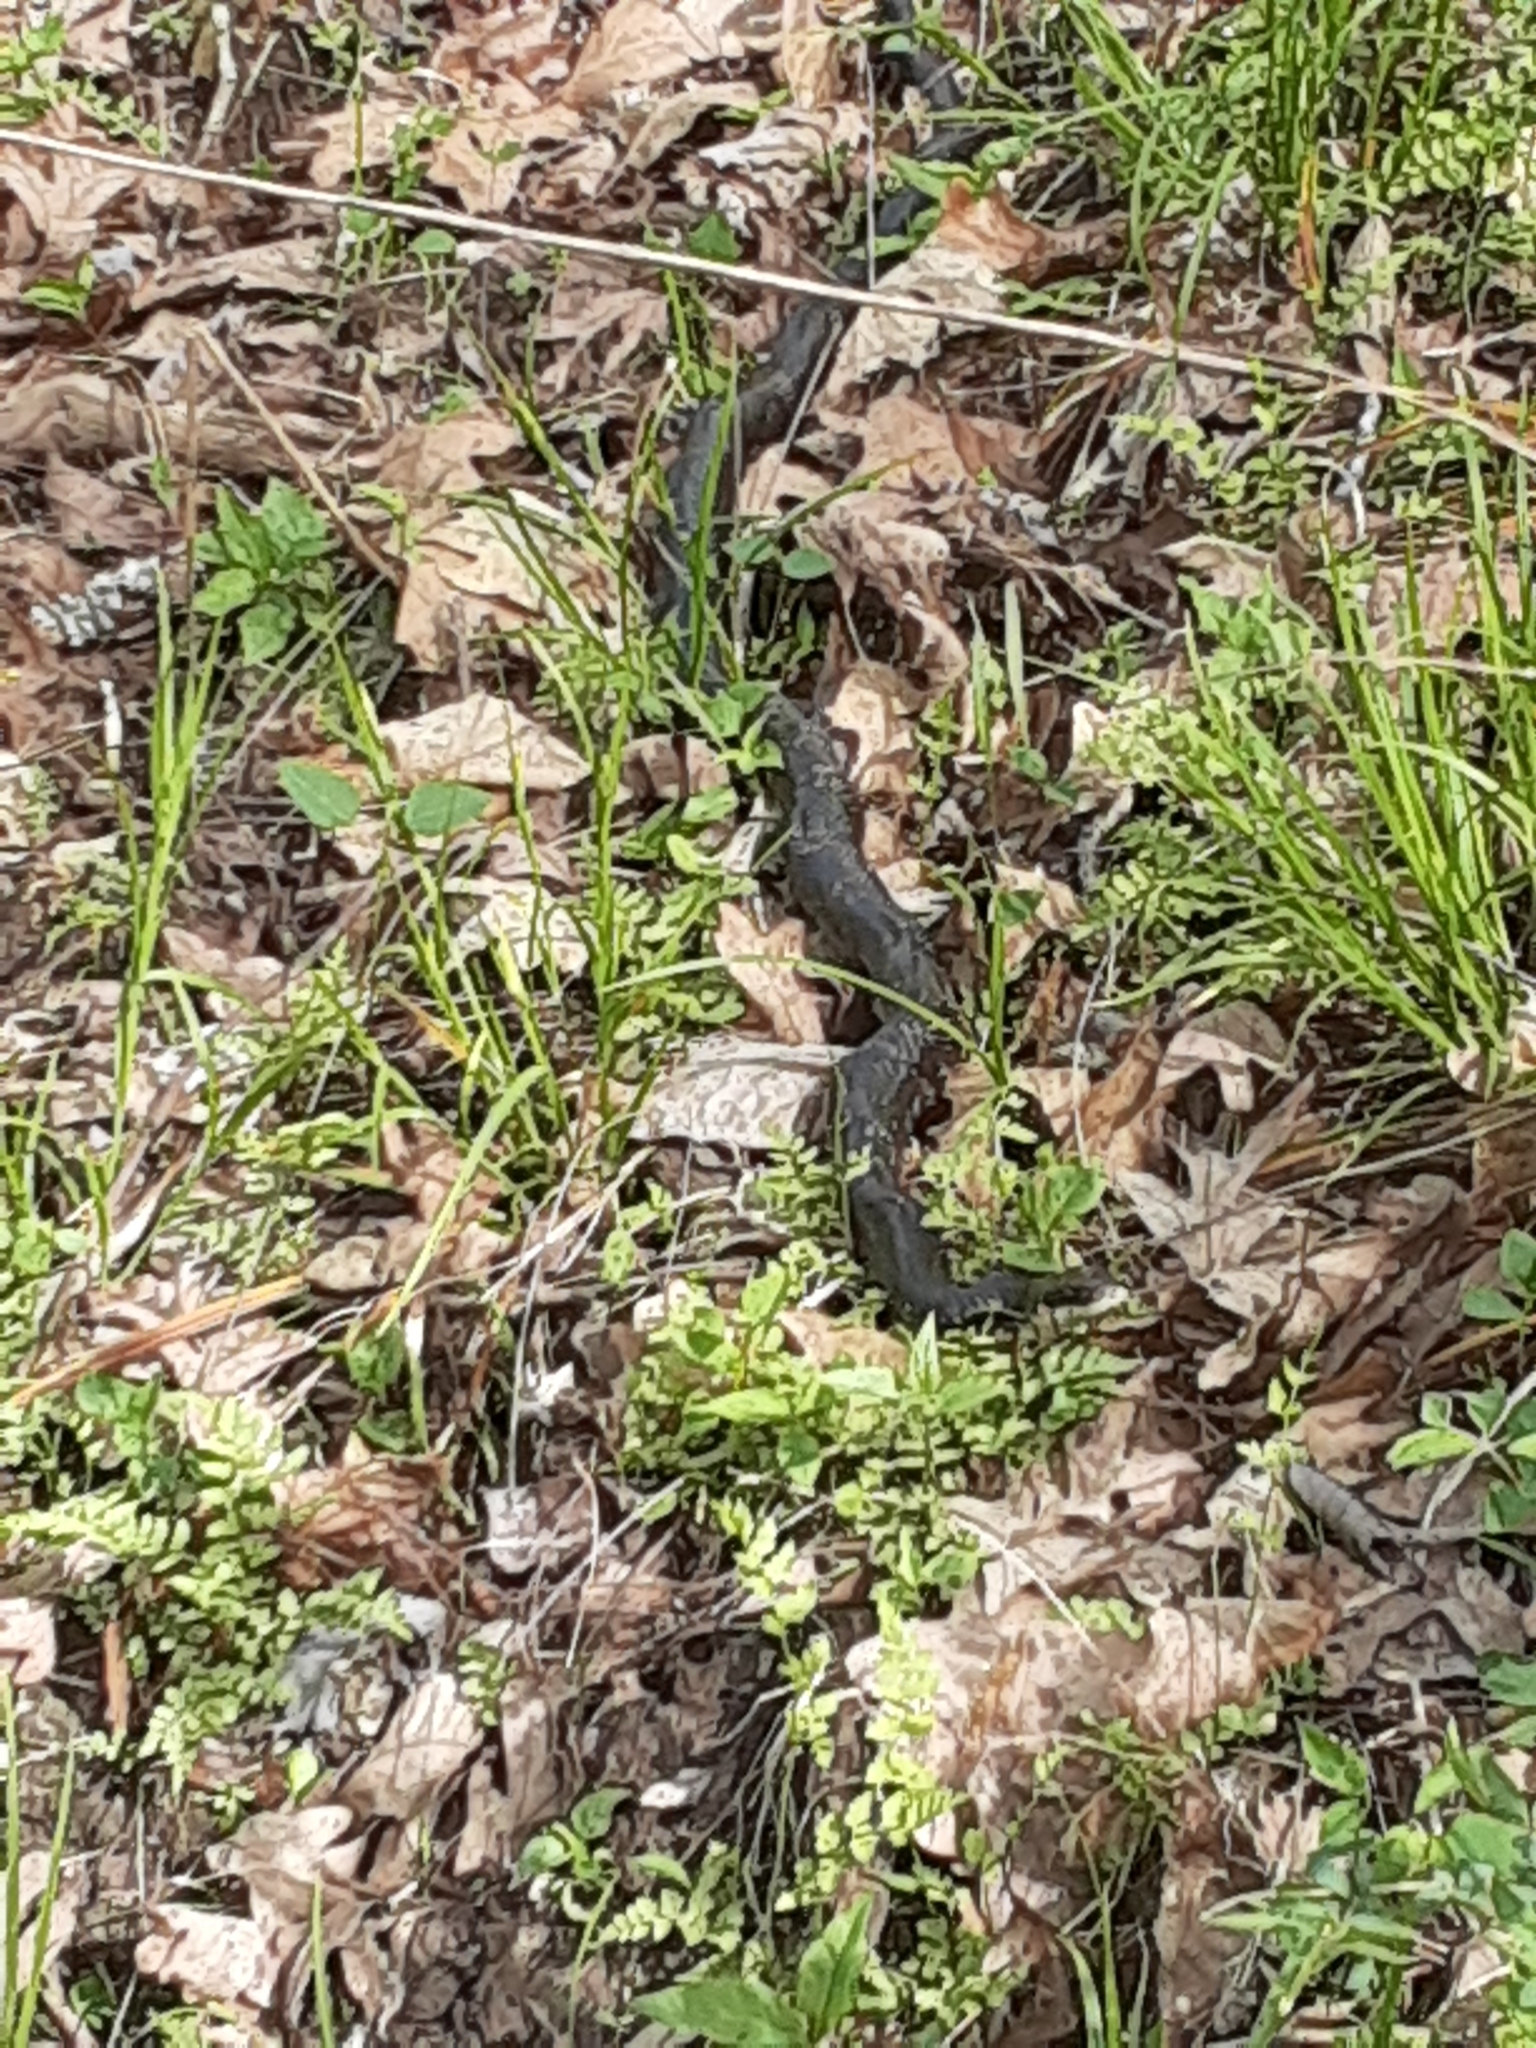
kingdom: Animalia
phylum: Chordata
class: Squamata
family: Colubridae
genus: Pantherophis
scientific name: Pantherophis obsoletus
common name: Black rat snake
